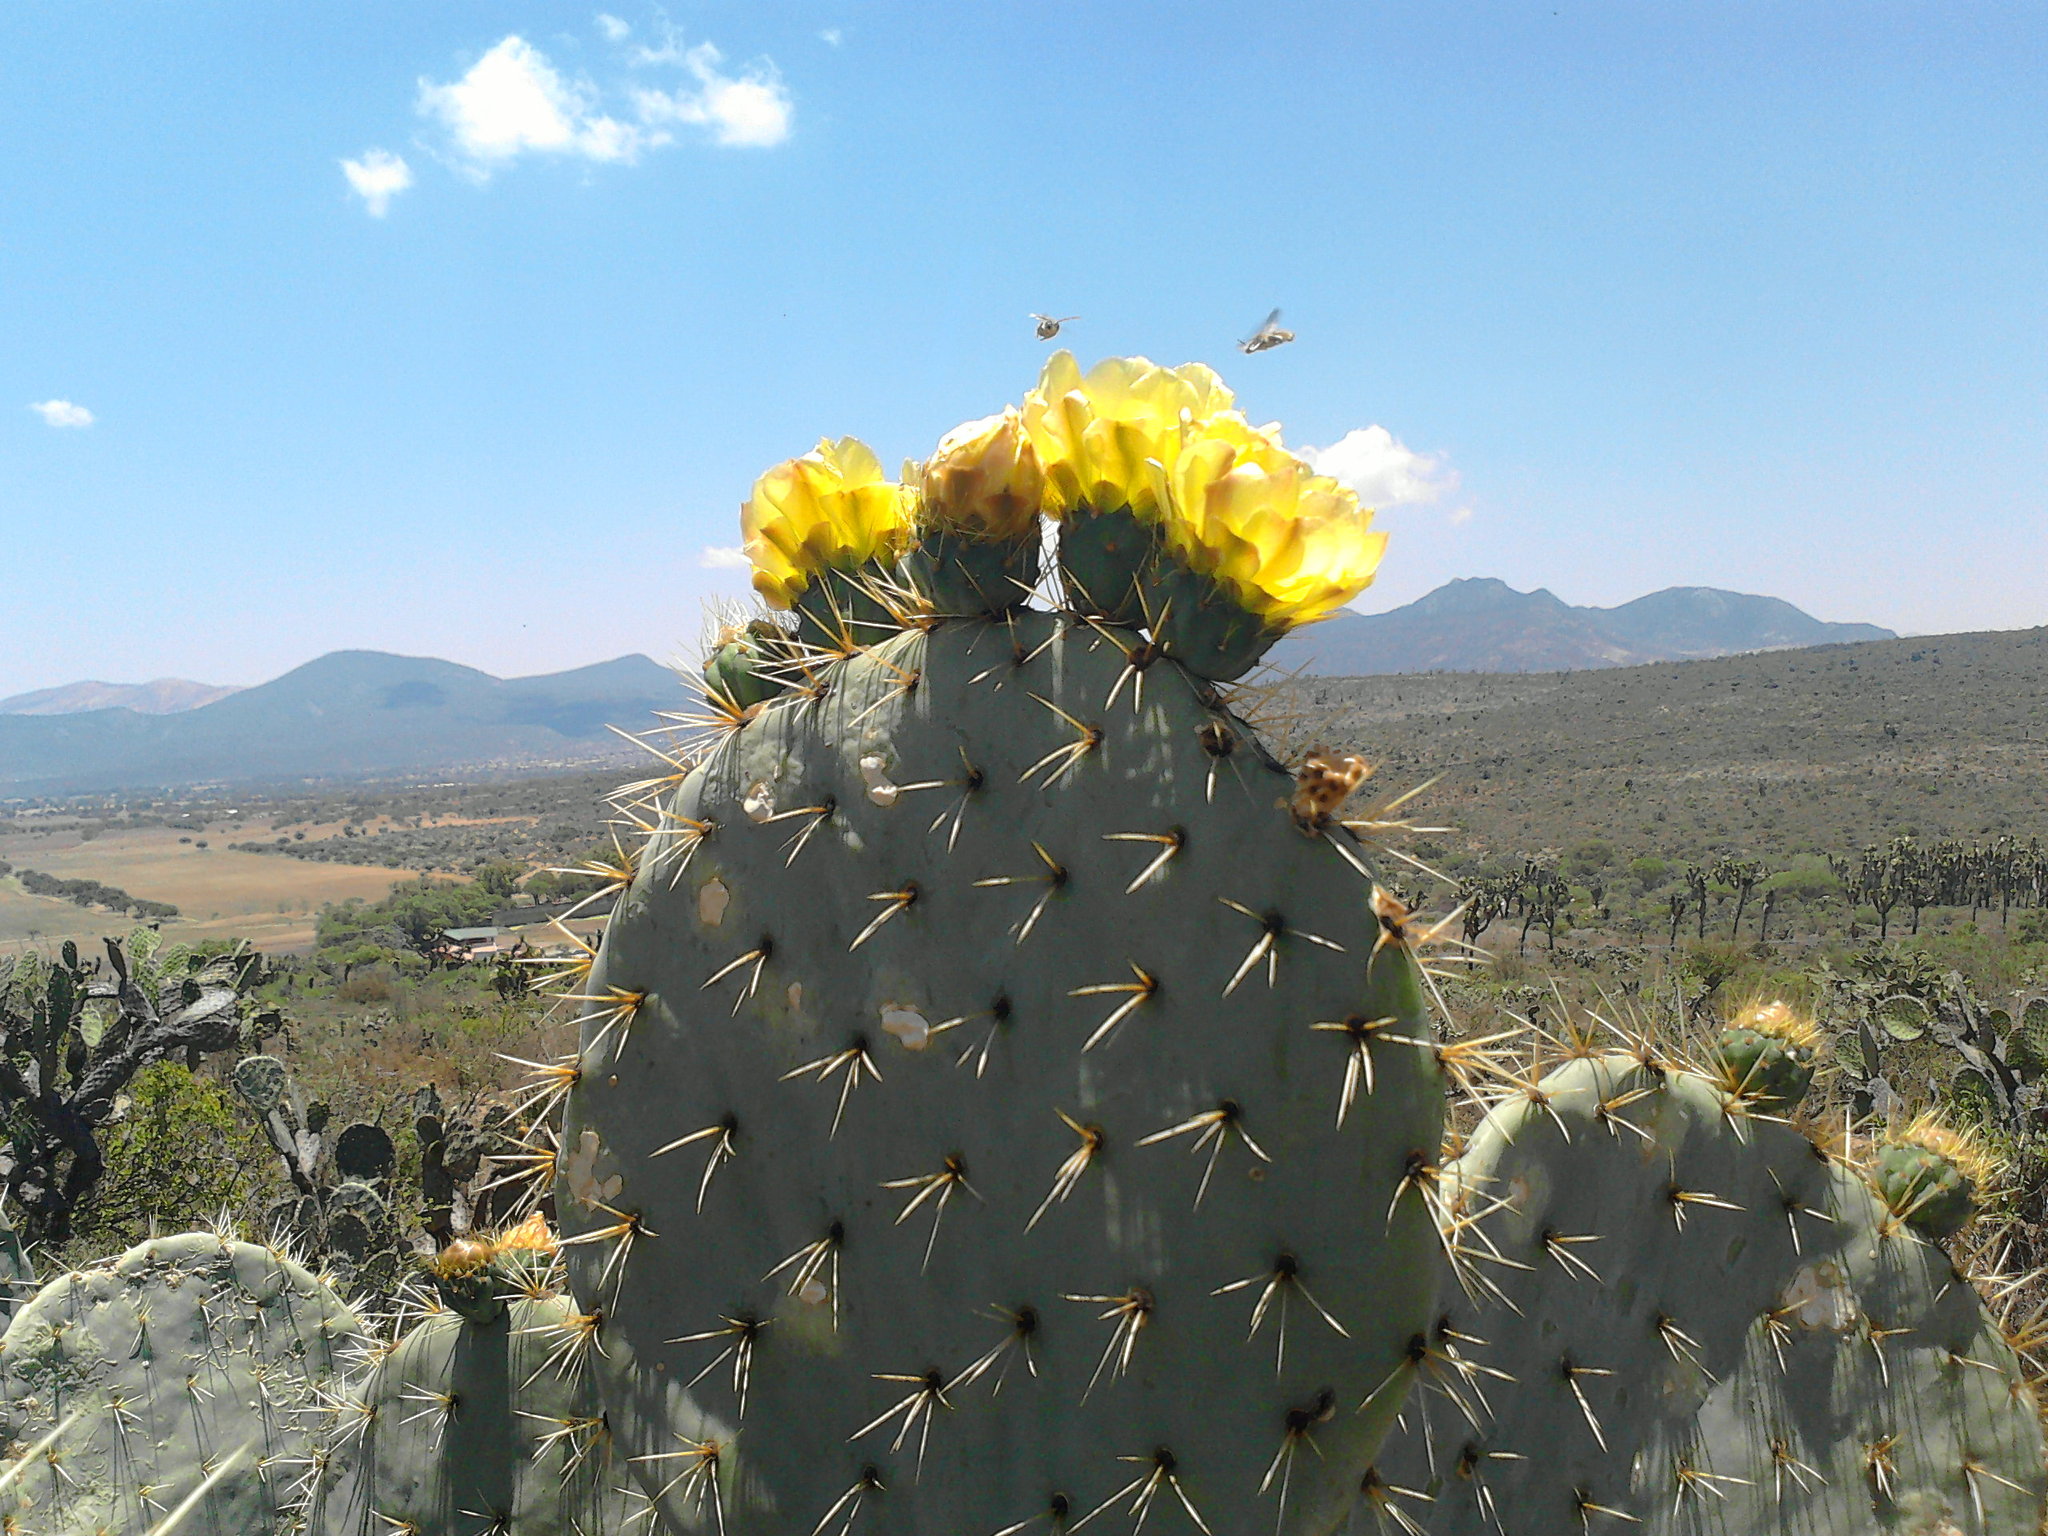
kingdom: Plantae
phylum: Tracheophyta
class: Magnoliopsida
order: Caryophyllales
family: Cactaceae
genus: Opuntia
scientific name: Opuntia robusta
